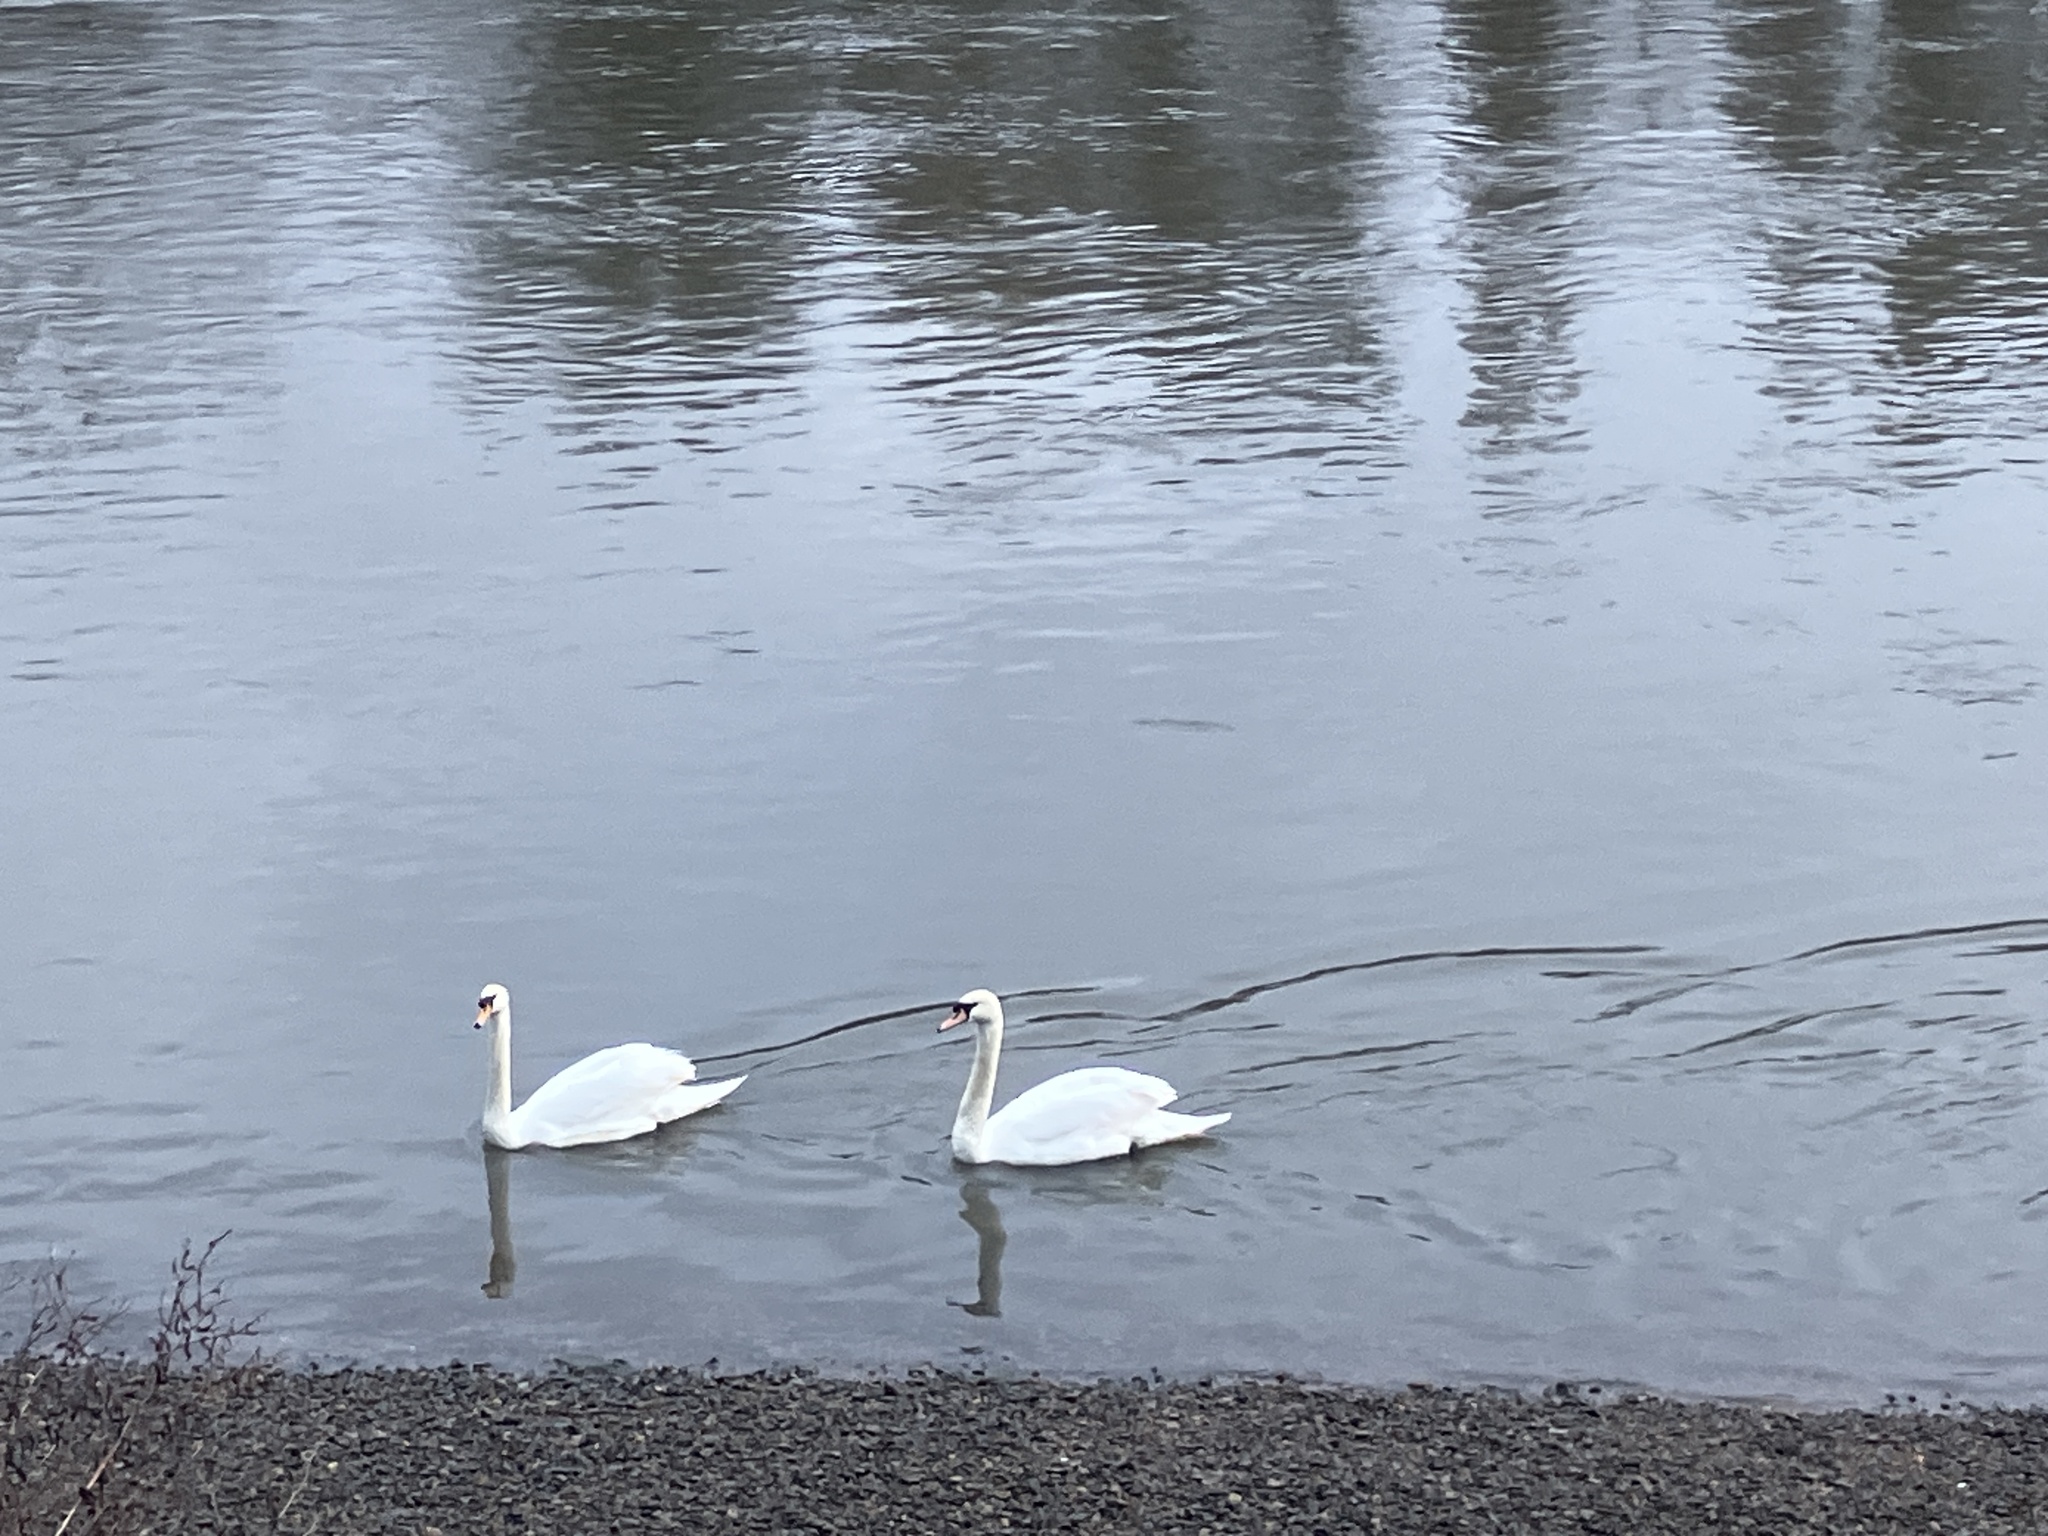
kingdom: Animalia
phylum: Chordata
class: Aves
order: Anseriformes
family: Anatidae
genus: Cygnus
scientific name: Cygnus olor
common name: Mute swan
